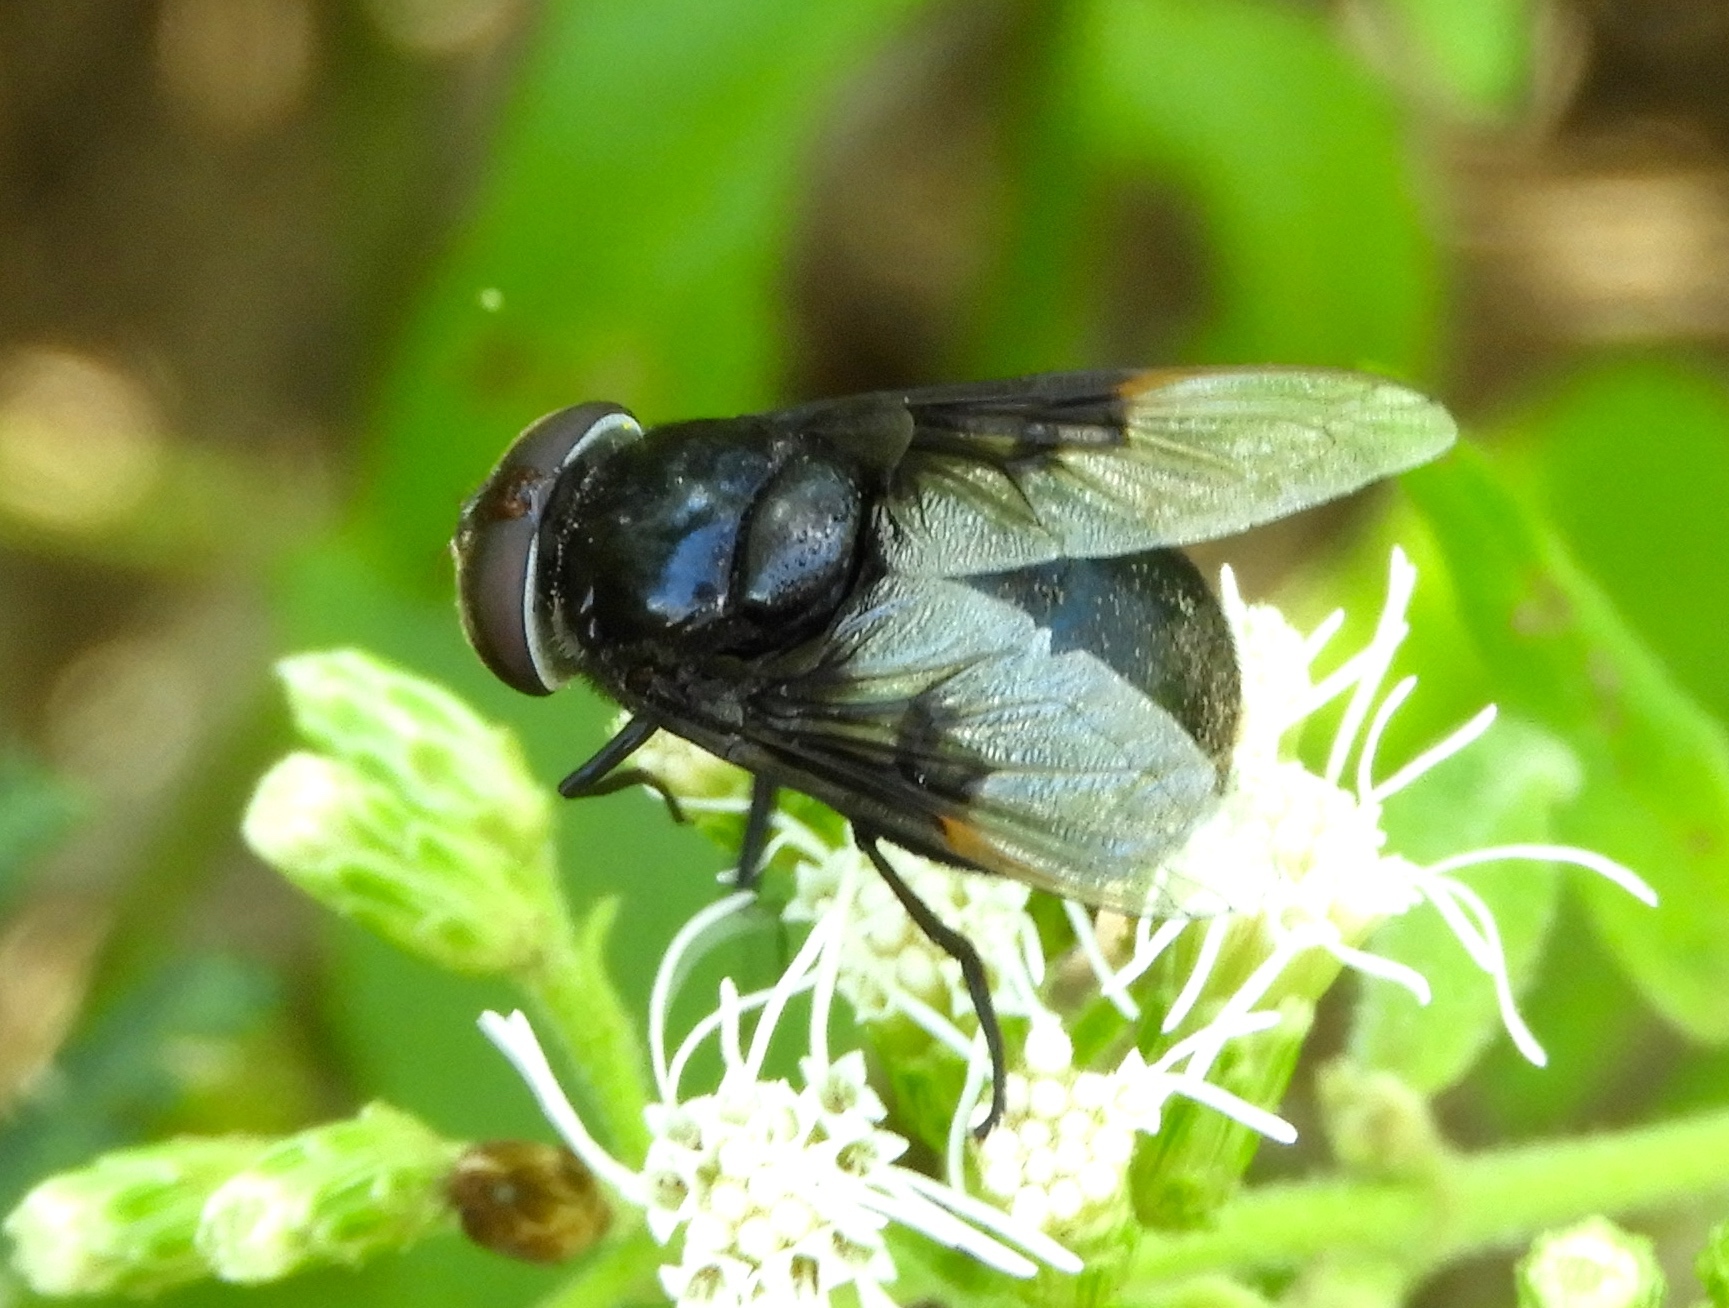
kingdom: Animalia
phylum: Arthropoda
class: Insecta
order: Diptera
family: Syrphidae
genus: Copestylum
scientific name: Copestylum mexicanum
